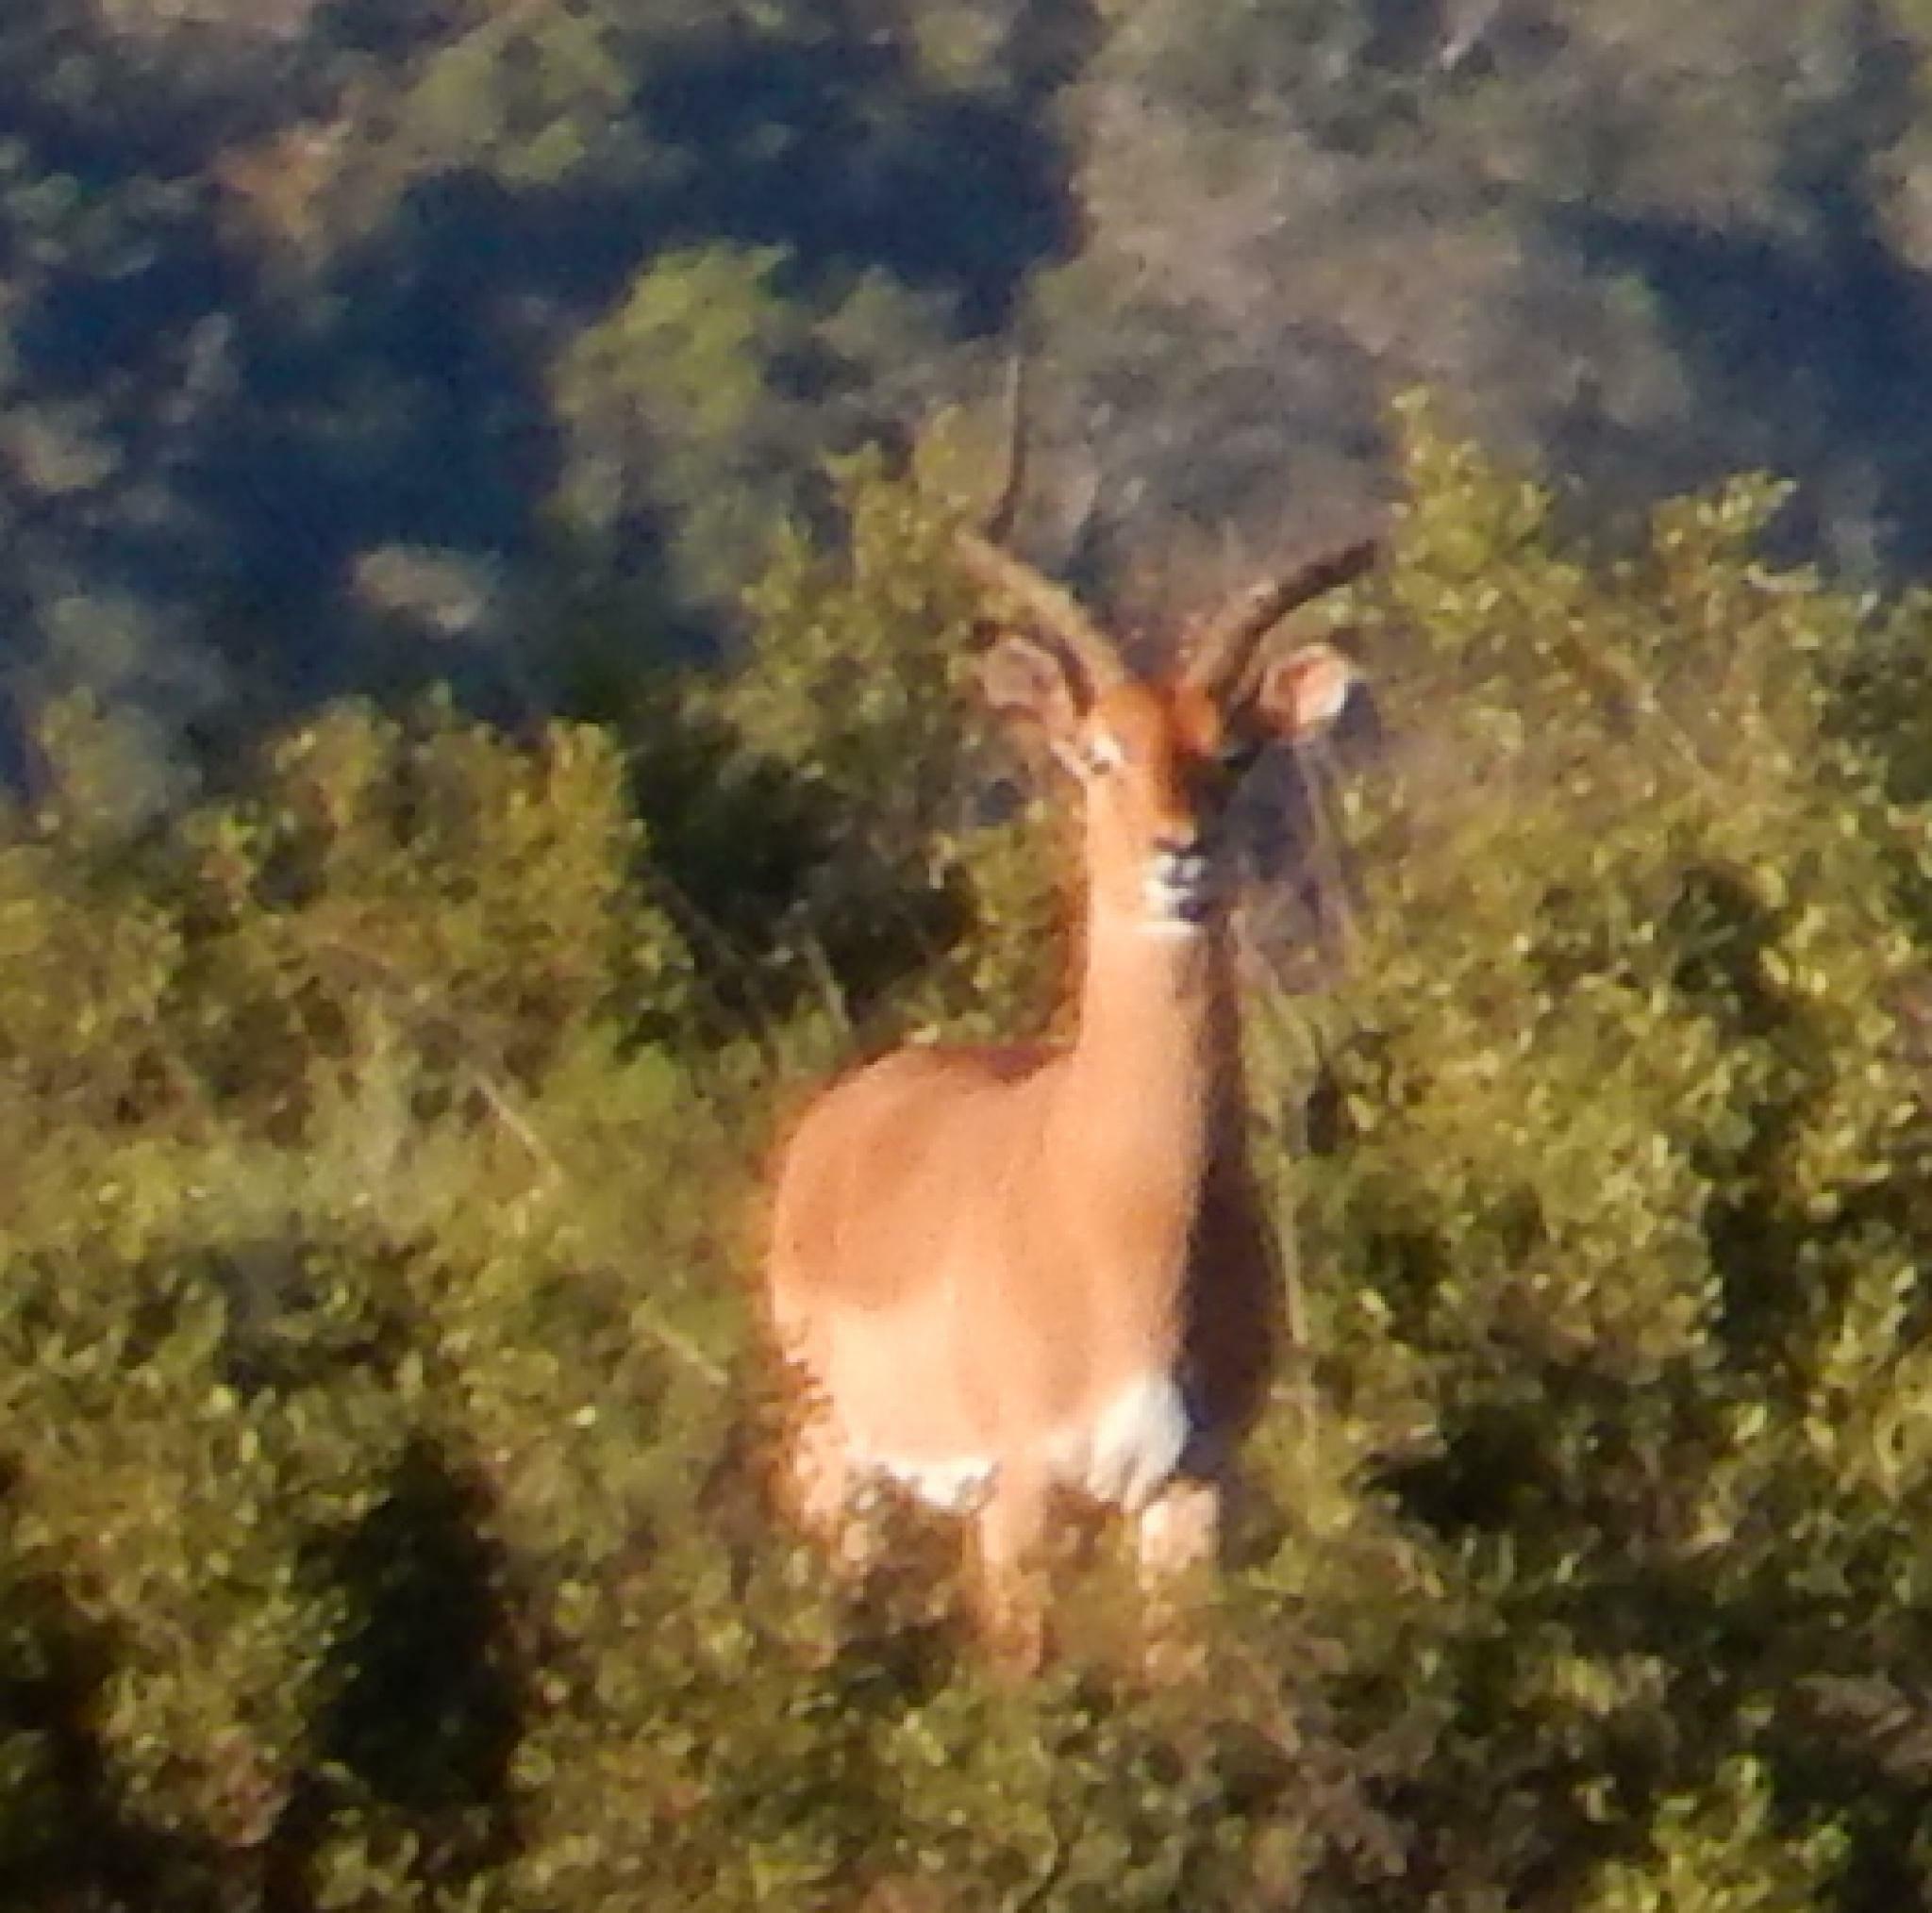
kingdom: Animalia
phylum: Chordata
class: Mammalia
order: Artiodactyla
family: Bovidae
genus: Aepyceros
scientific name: Aepyceros melampus
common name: Impala
